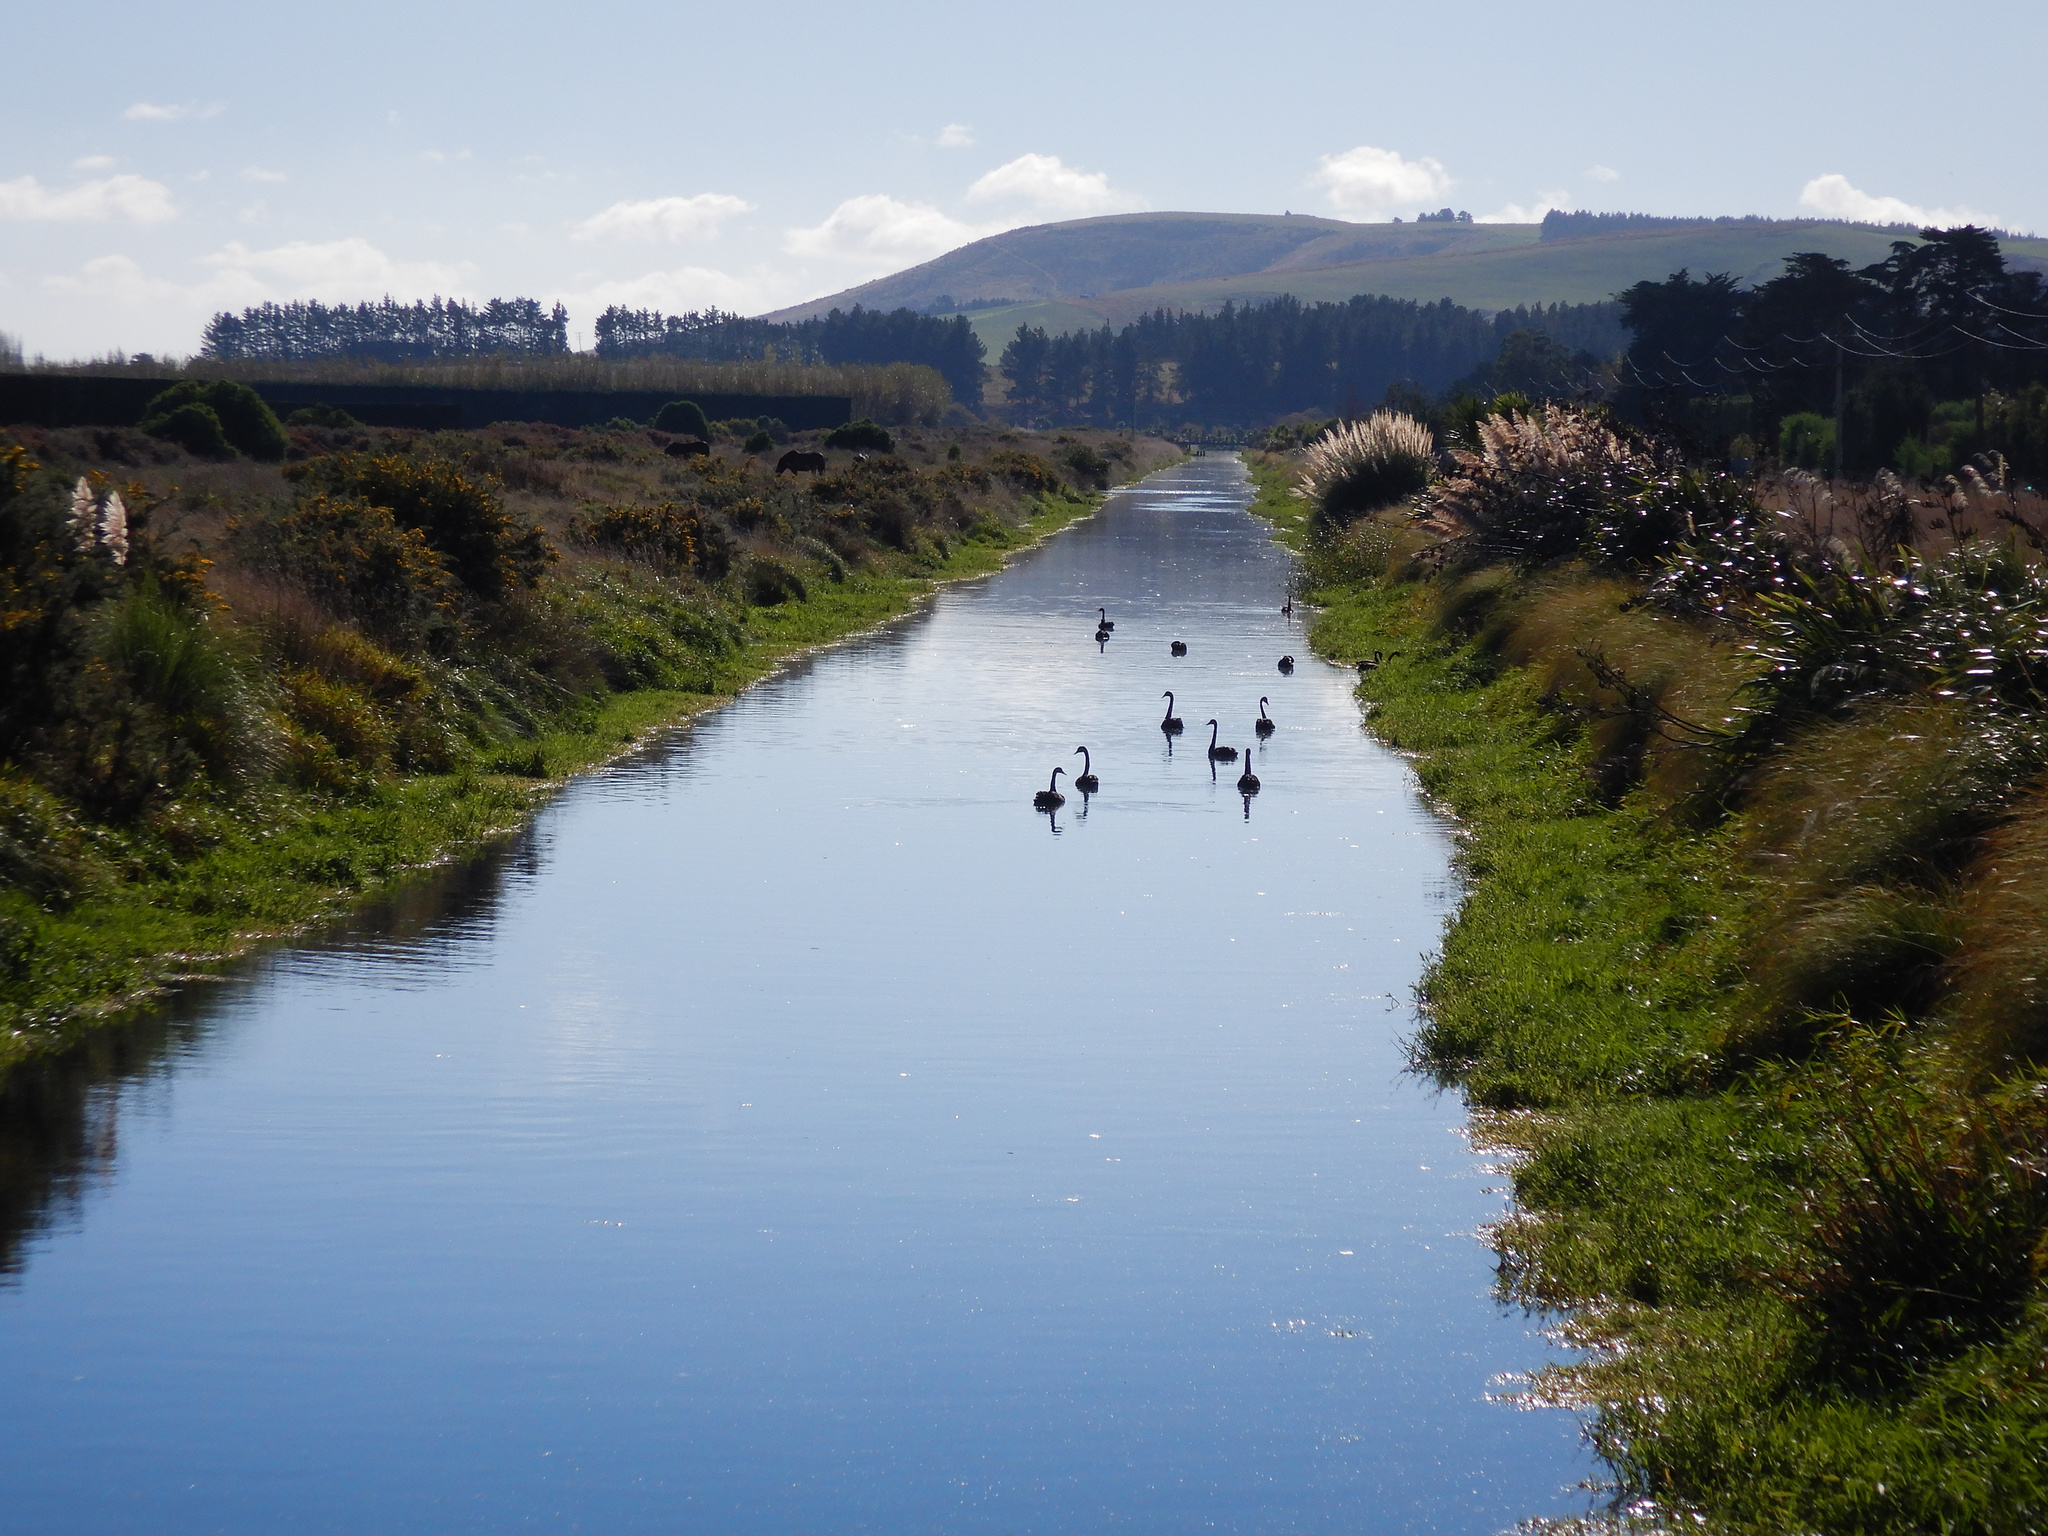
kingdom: Animalia
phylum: Chordata
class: Aves
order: Anseriformes
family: Anatidae
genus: Cygnus
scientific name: Cygnus atratus
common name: Black swan
